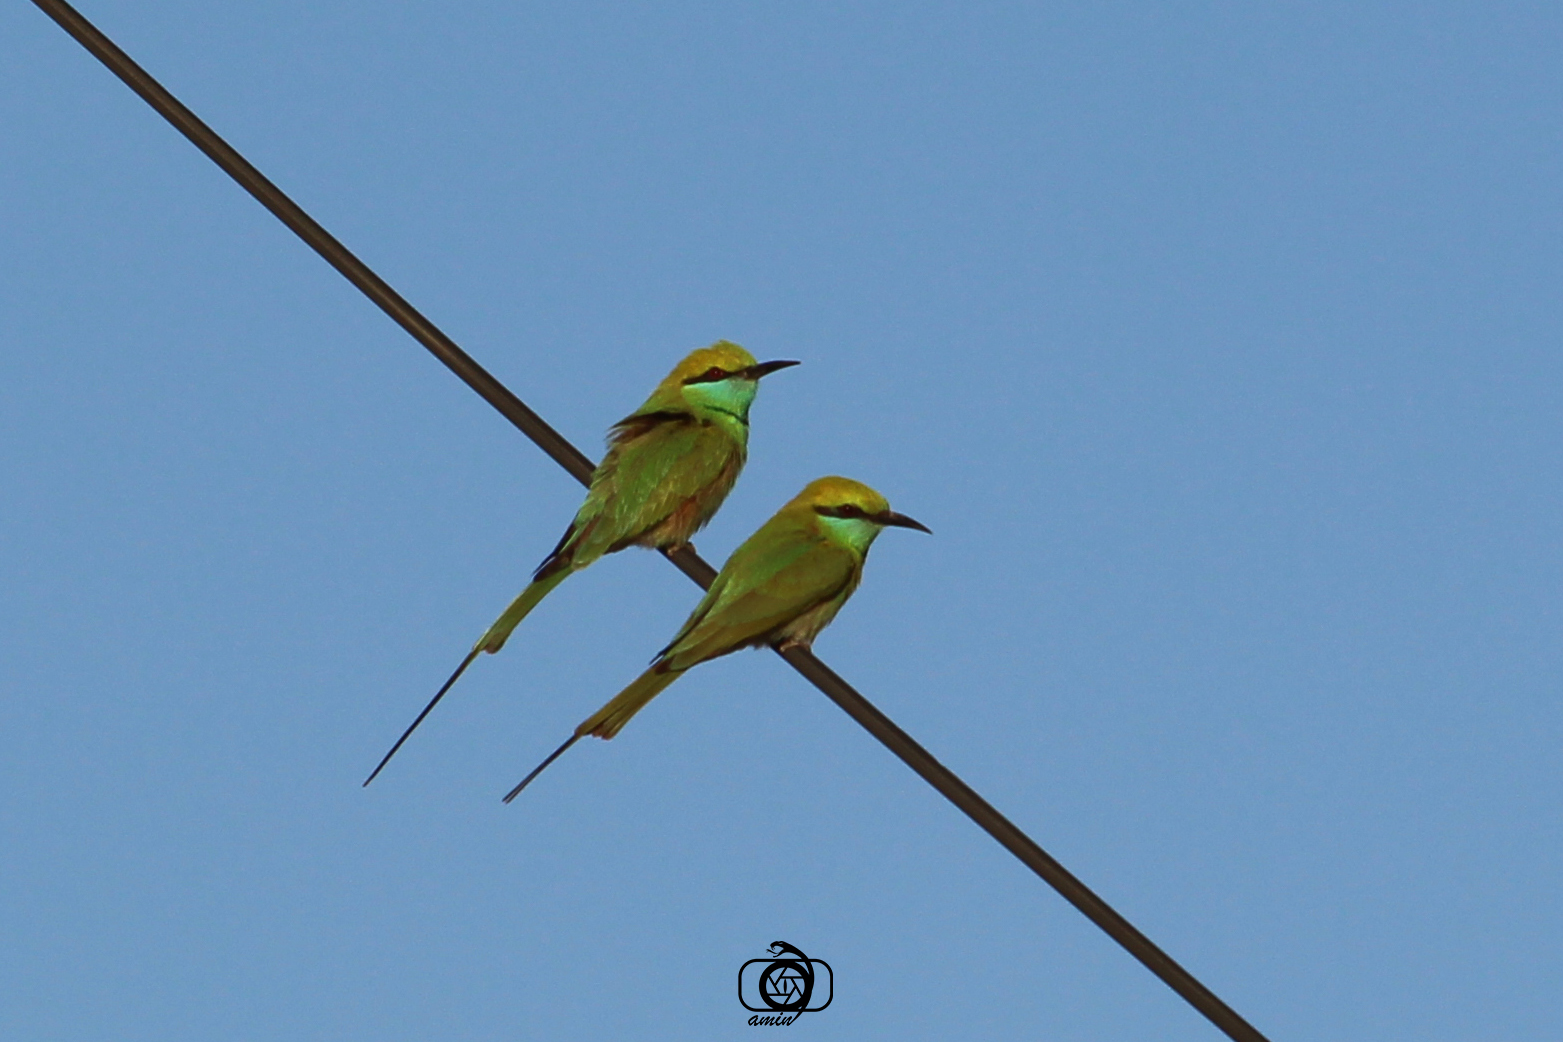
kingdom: Animalia
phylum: Chordata
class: Aves
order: Coraciiformes
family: Meropidae
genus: Merops
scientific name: Merops orientalis
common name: Green bee-eater
